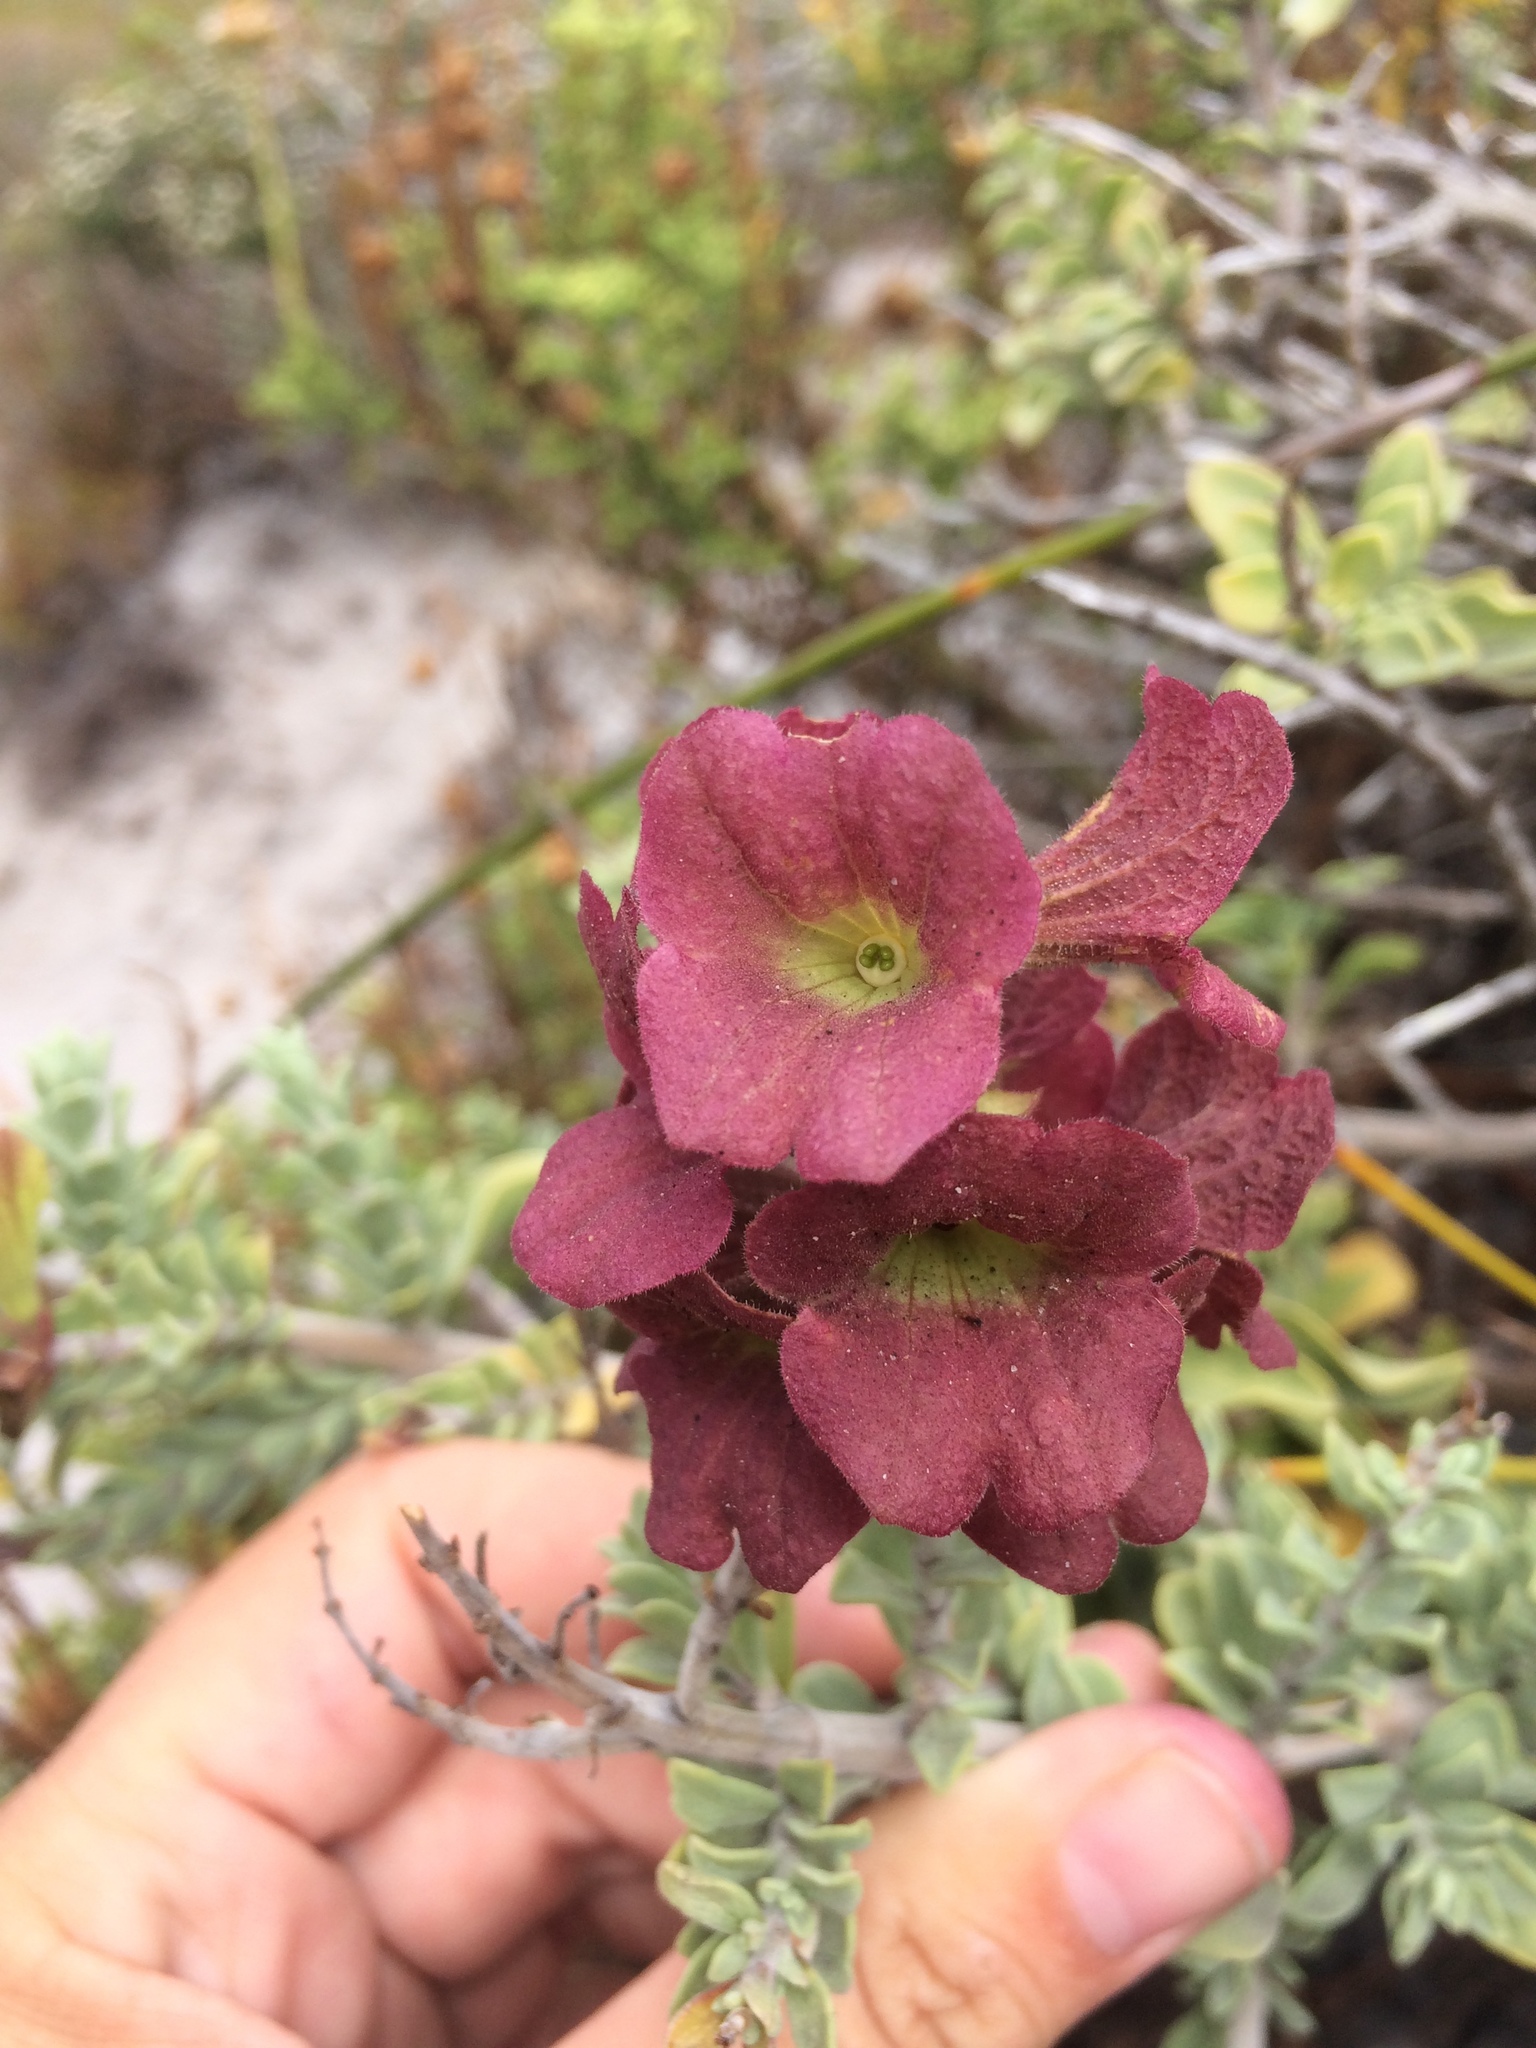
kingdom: Plantae
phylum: Tracheophyta
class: Magnoliopsida
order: Lamiales
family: Lamiaceae
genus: Salvia
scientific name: Salvia aurea
